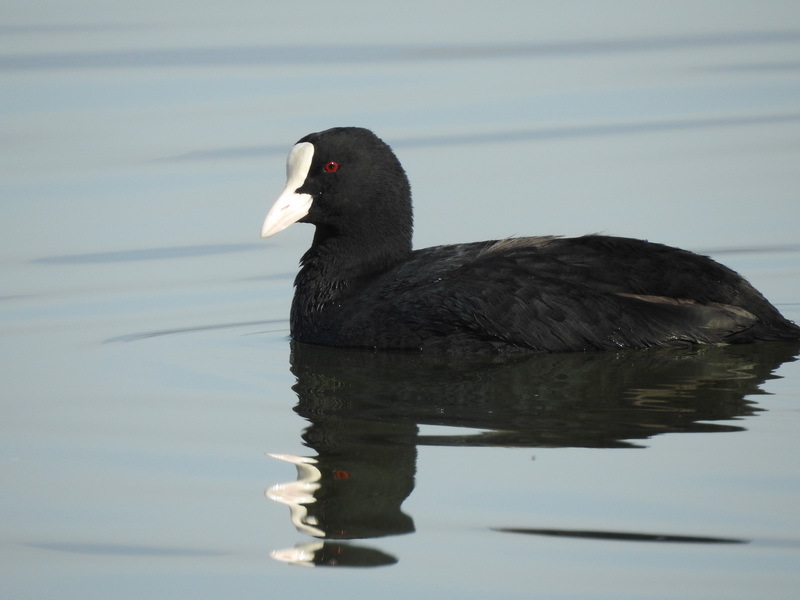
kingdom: Animalia
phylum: Chordata
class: Aves
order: Gruiformes
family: Rallidae
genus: Fulica
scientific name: Fulica atra
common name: Eurasian coot
